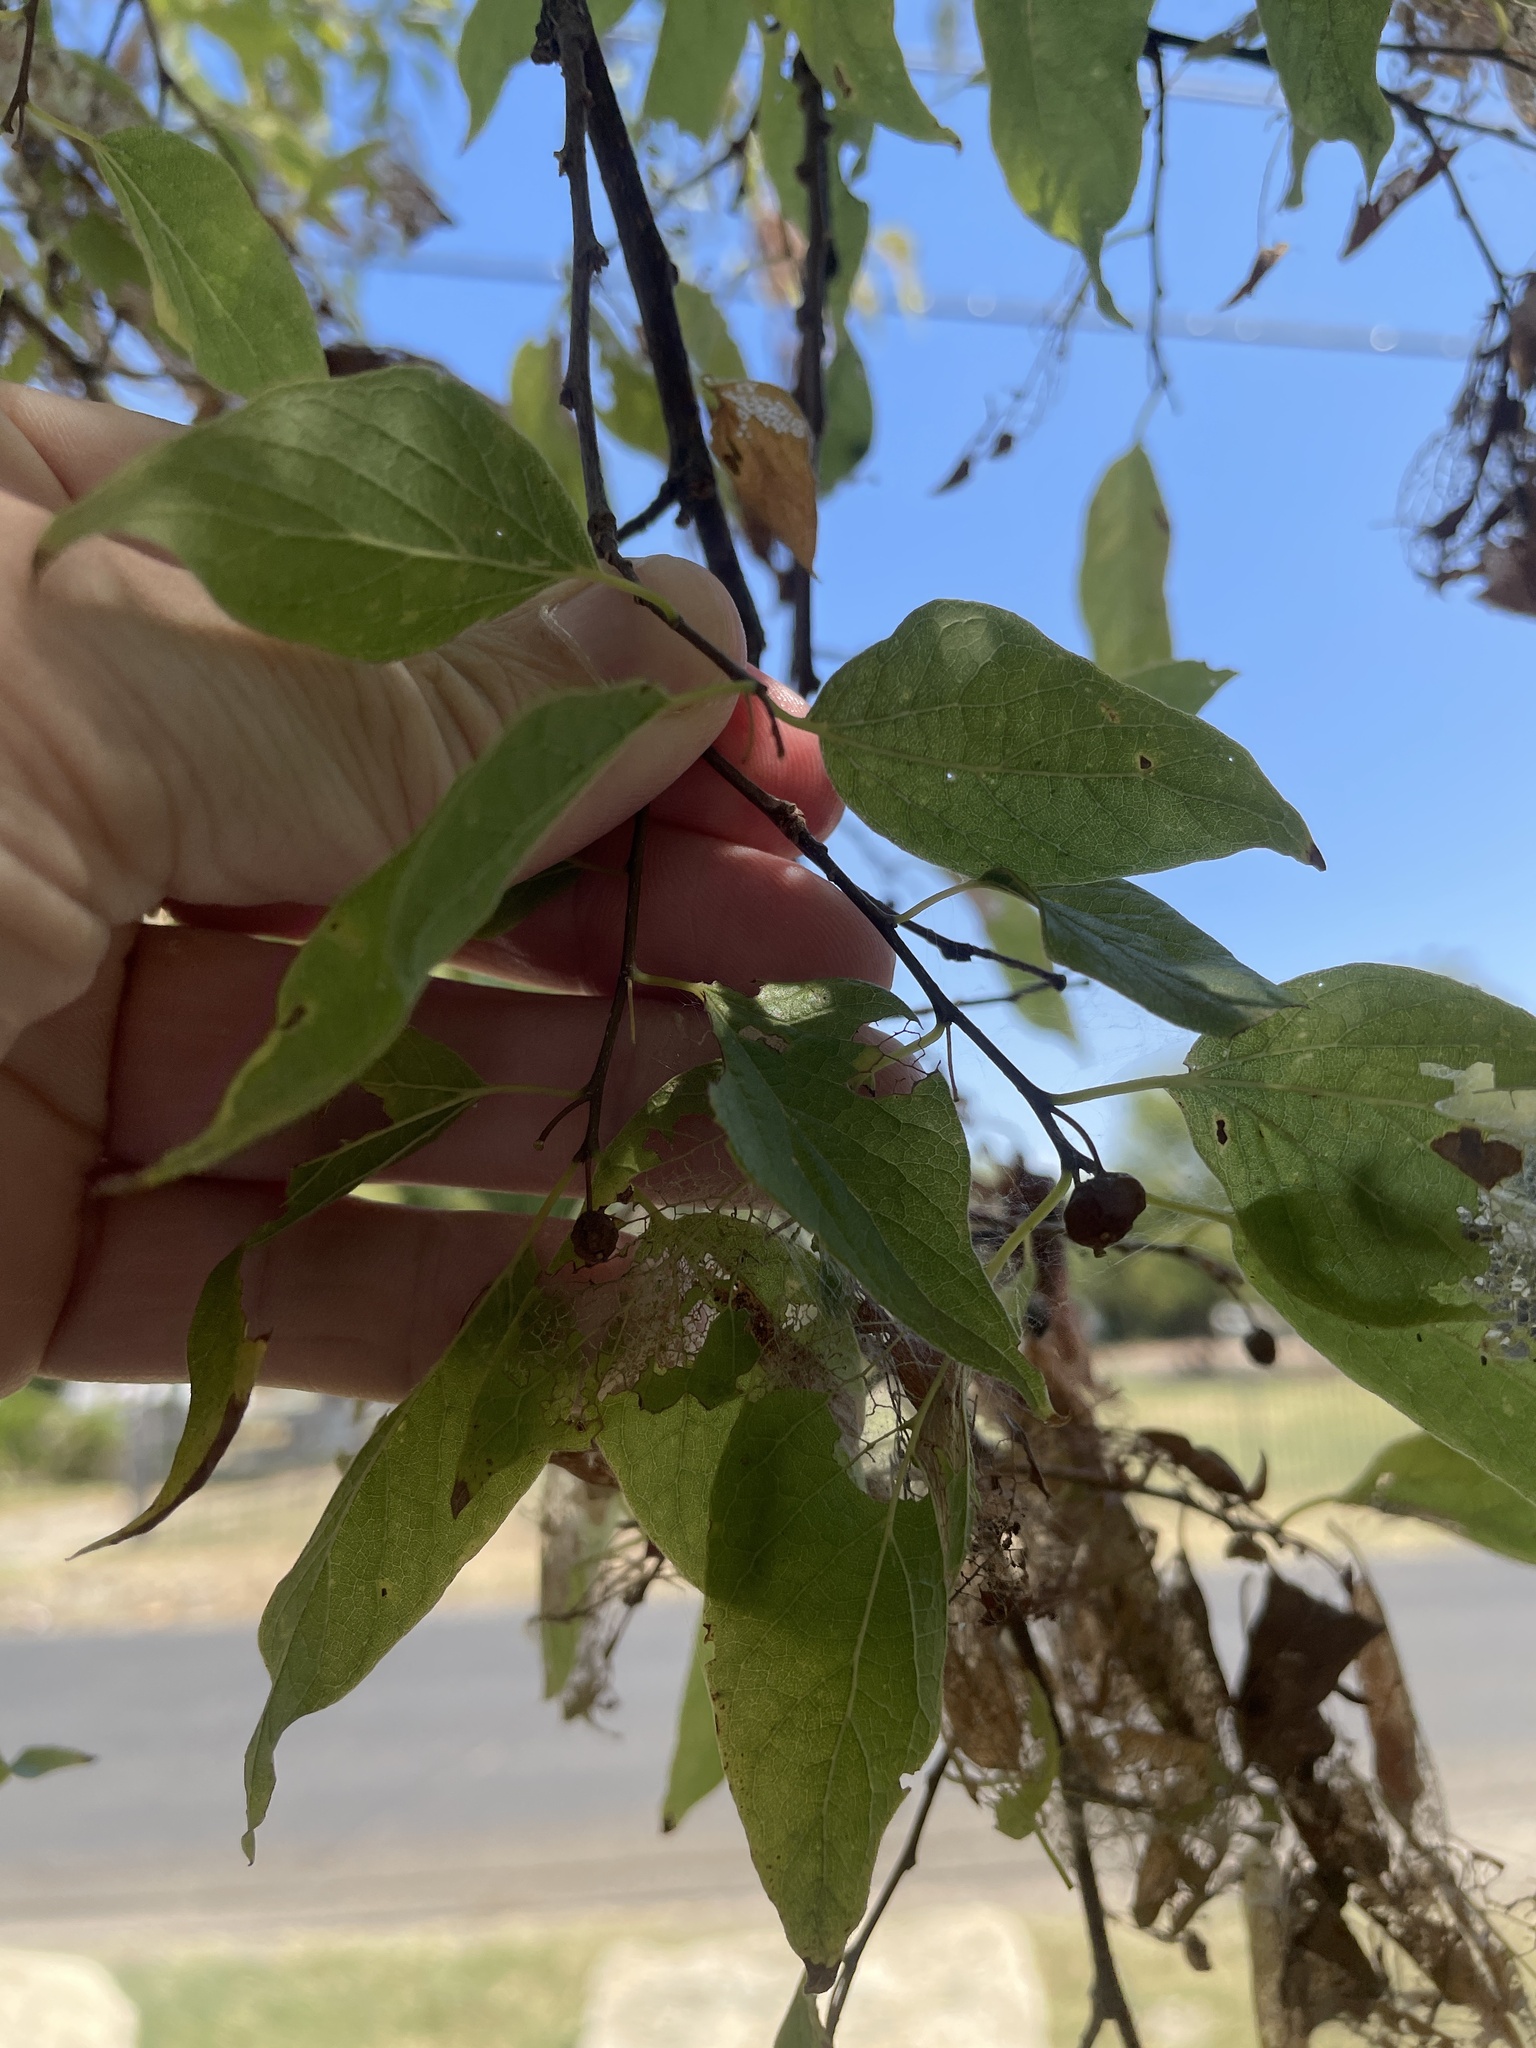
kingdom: Plantae
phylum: Tracheophyta
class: Magnoliopsida
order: Rosales
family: Cannabaceae
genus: Celtis
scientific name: Celtis laevigata
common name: Sugarberry
